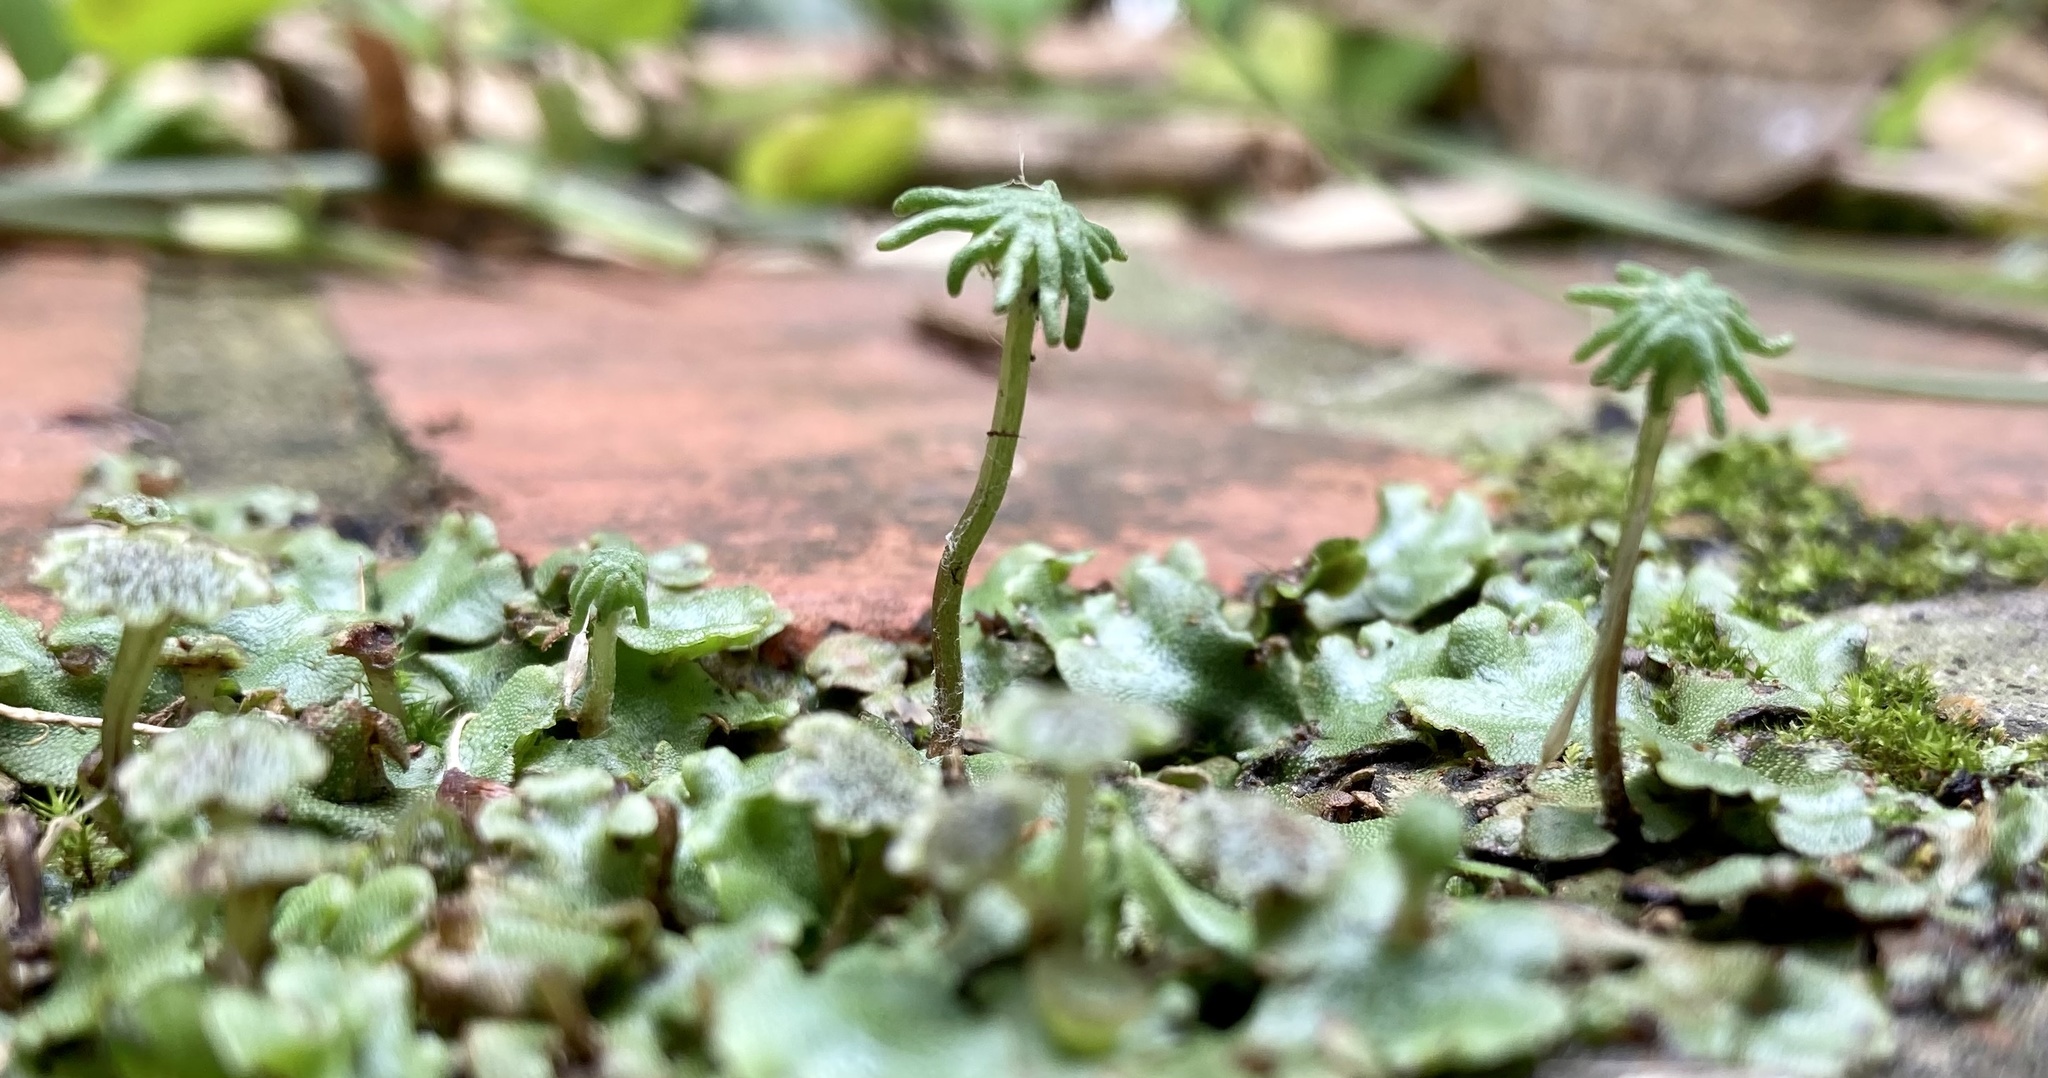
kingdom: Plantae
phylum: Marchantiophyta
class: Marchantiopsida
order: Marchantiales
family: Marchantiaceae
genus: Marchantia
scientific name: Marchantia paleacea
